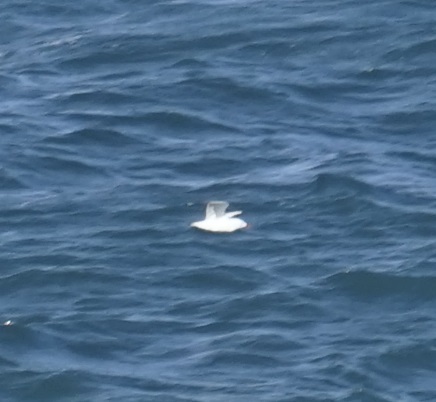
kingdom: Animalia
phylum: Chordata
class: Aves
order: Charadriiformes
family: Laridae
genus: Chroicocephalus
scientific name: Chroicocephalus novaehollandiae
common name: Silver gull
